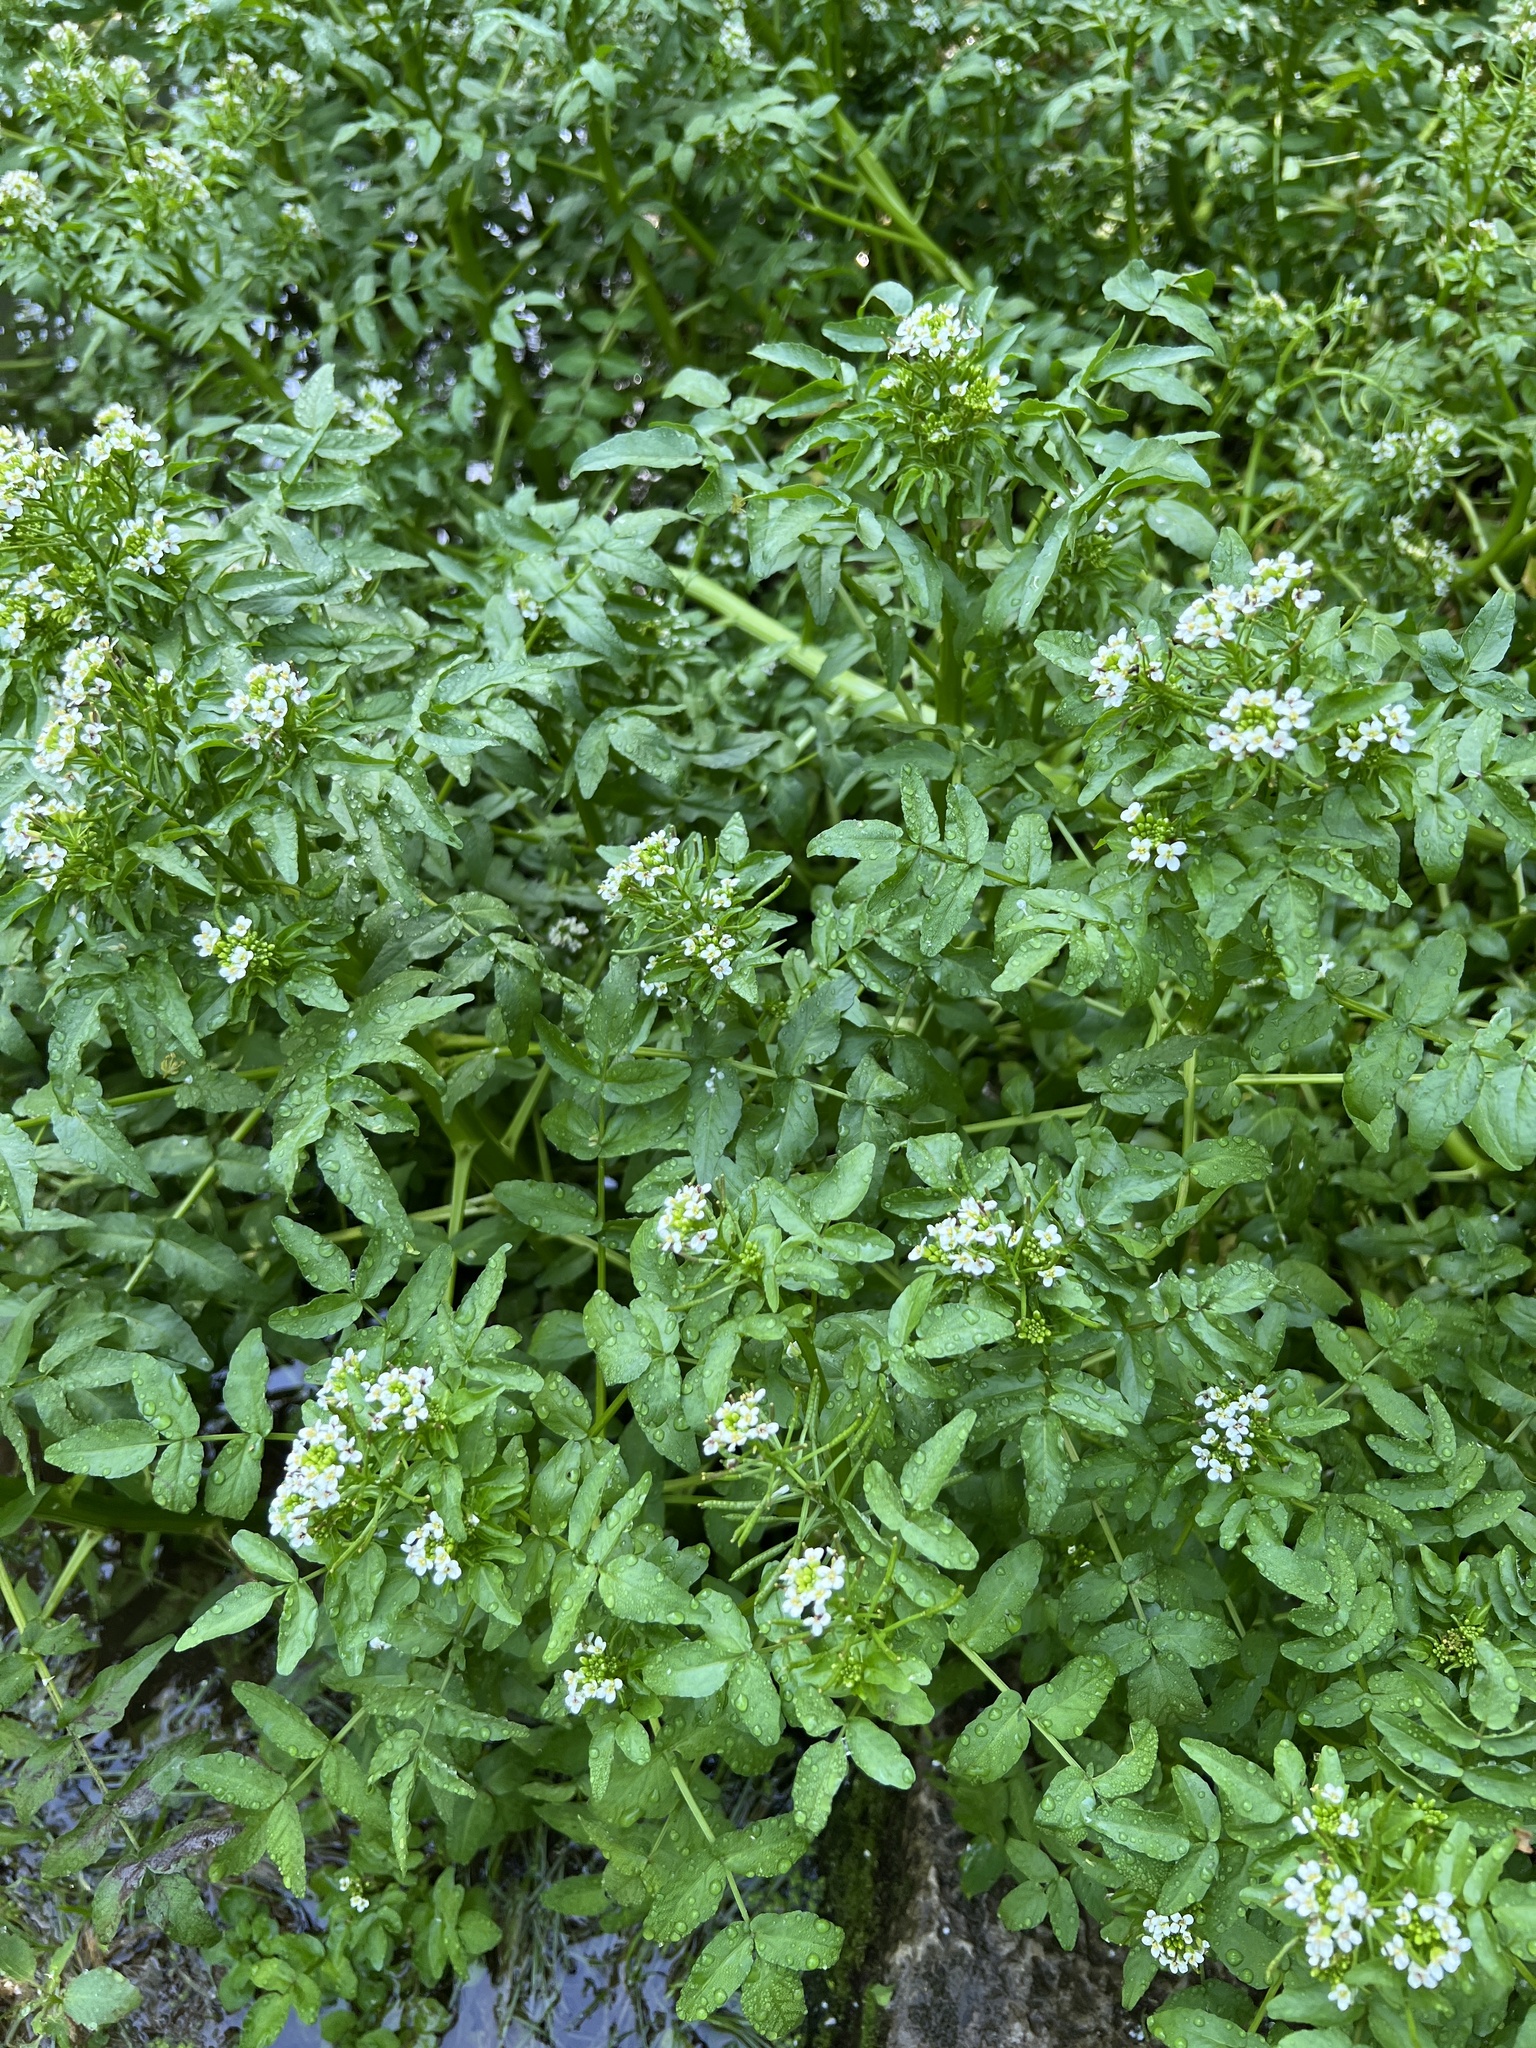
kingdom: Plantae
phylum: Tracheophyta
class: Magnoliopsida
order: Brassicales
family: Brassicaceae
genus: Nasturtium
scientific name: Nasturtium officinale
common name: Watercress
